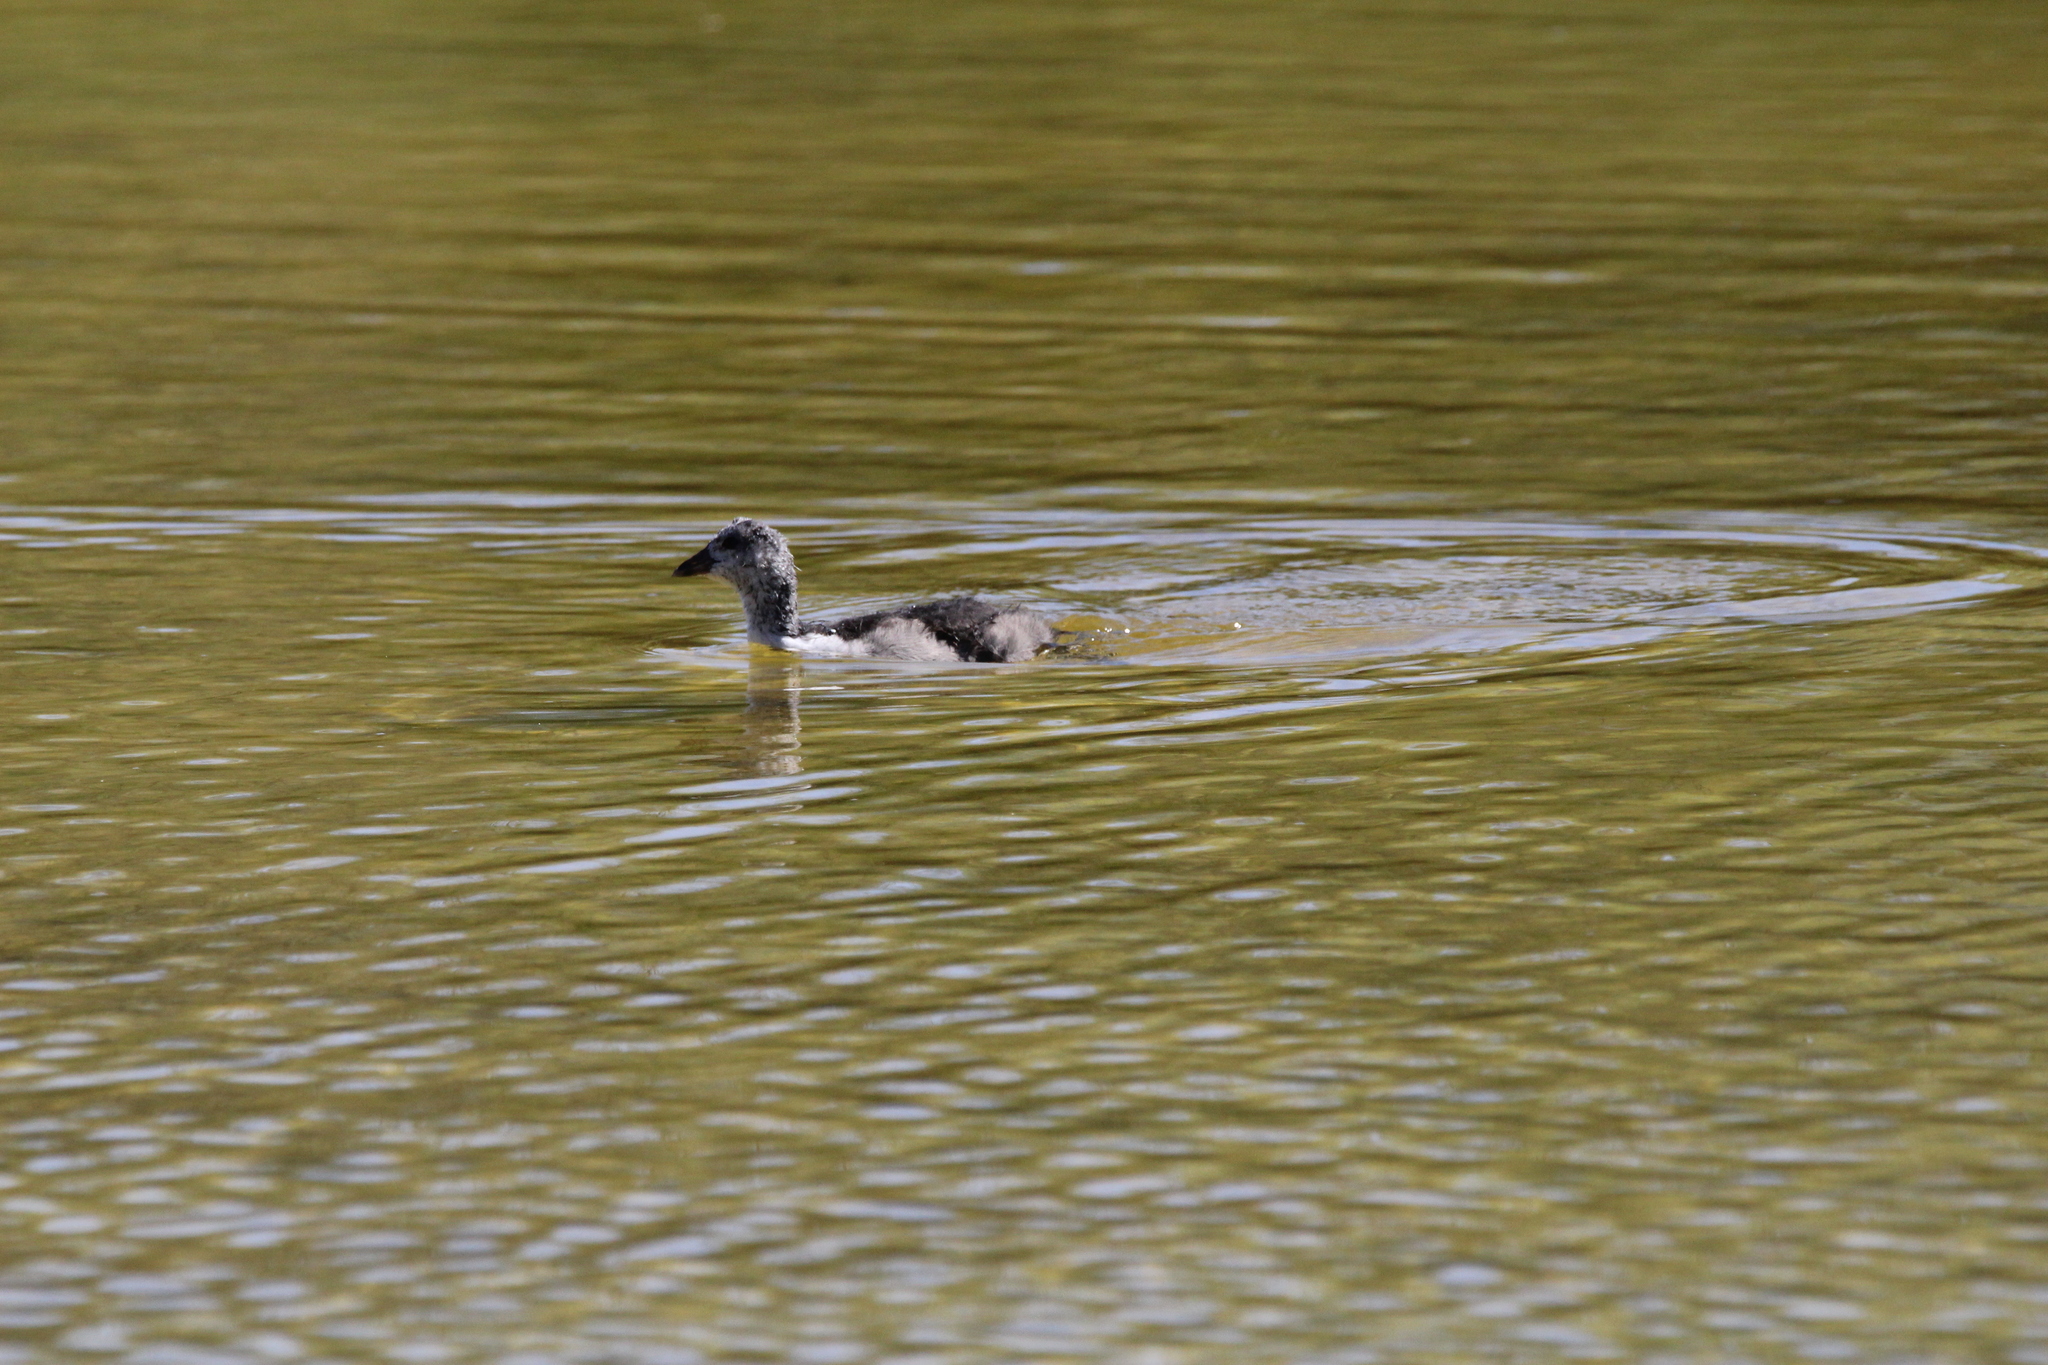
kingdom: Animalia
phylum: Chordata
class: Aves
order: Gruiformes
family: Rallidae
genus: Fulica
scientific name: Fulica americana
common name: American coot
